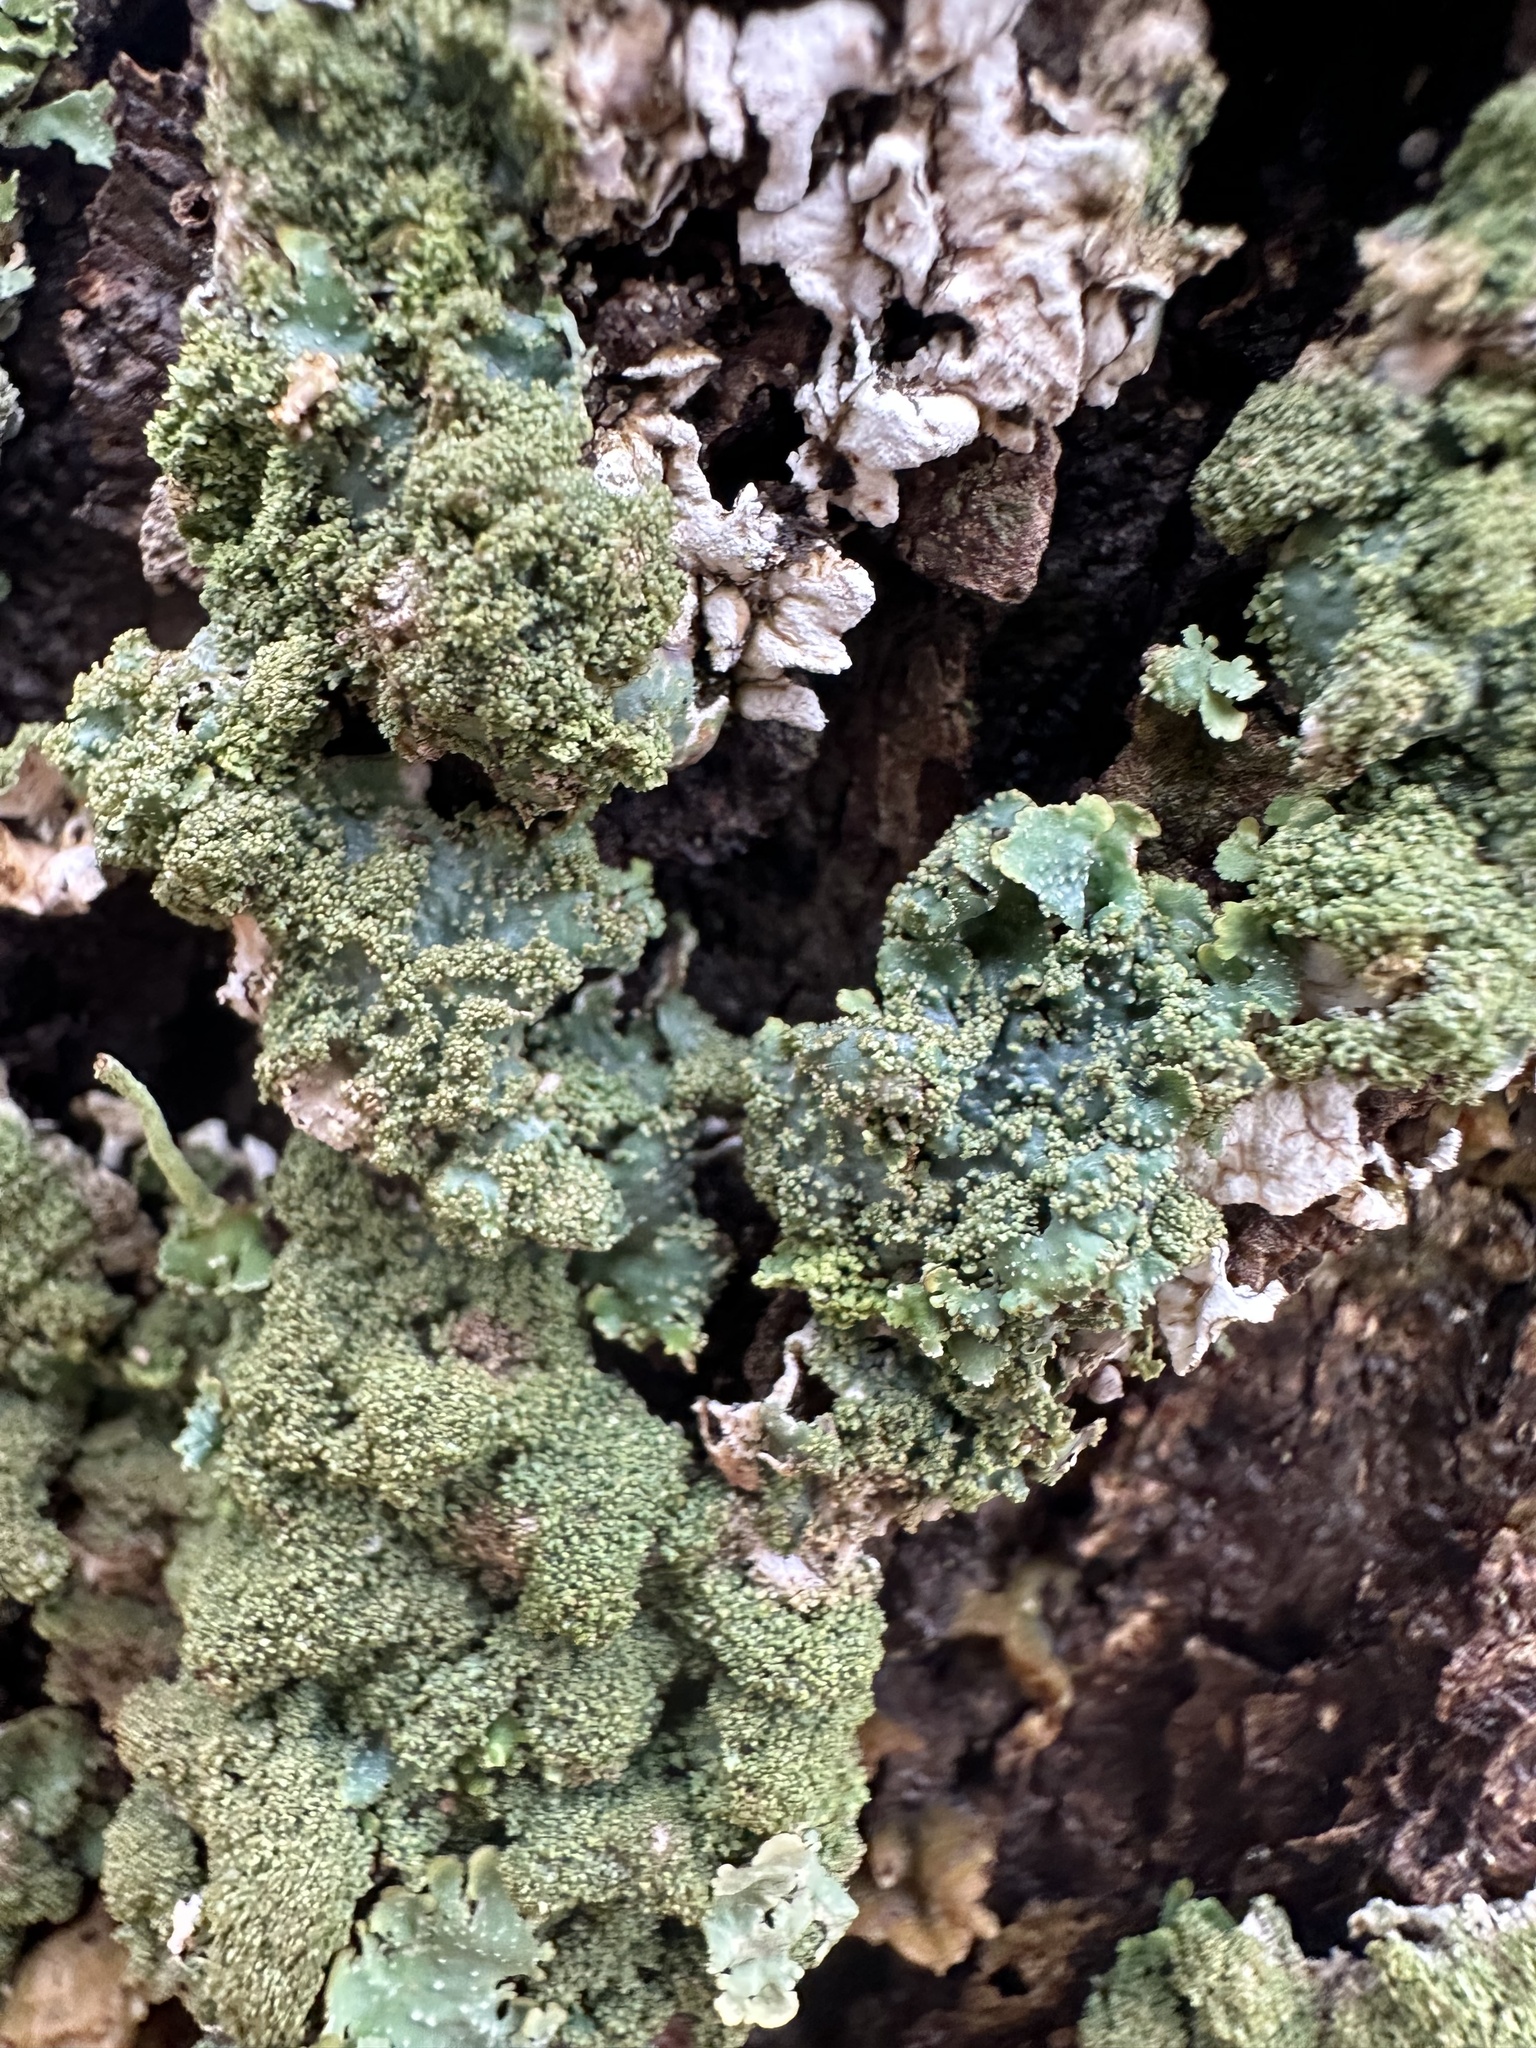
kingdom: Fungi
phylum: Ascomycota
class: Lecanoromycetes
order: Lecanorales
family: Parmeliaceae
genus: Punctelia
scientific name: Punctelia rudecta
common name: Rough speckled shield lichen
